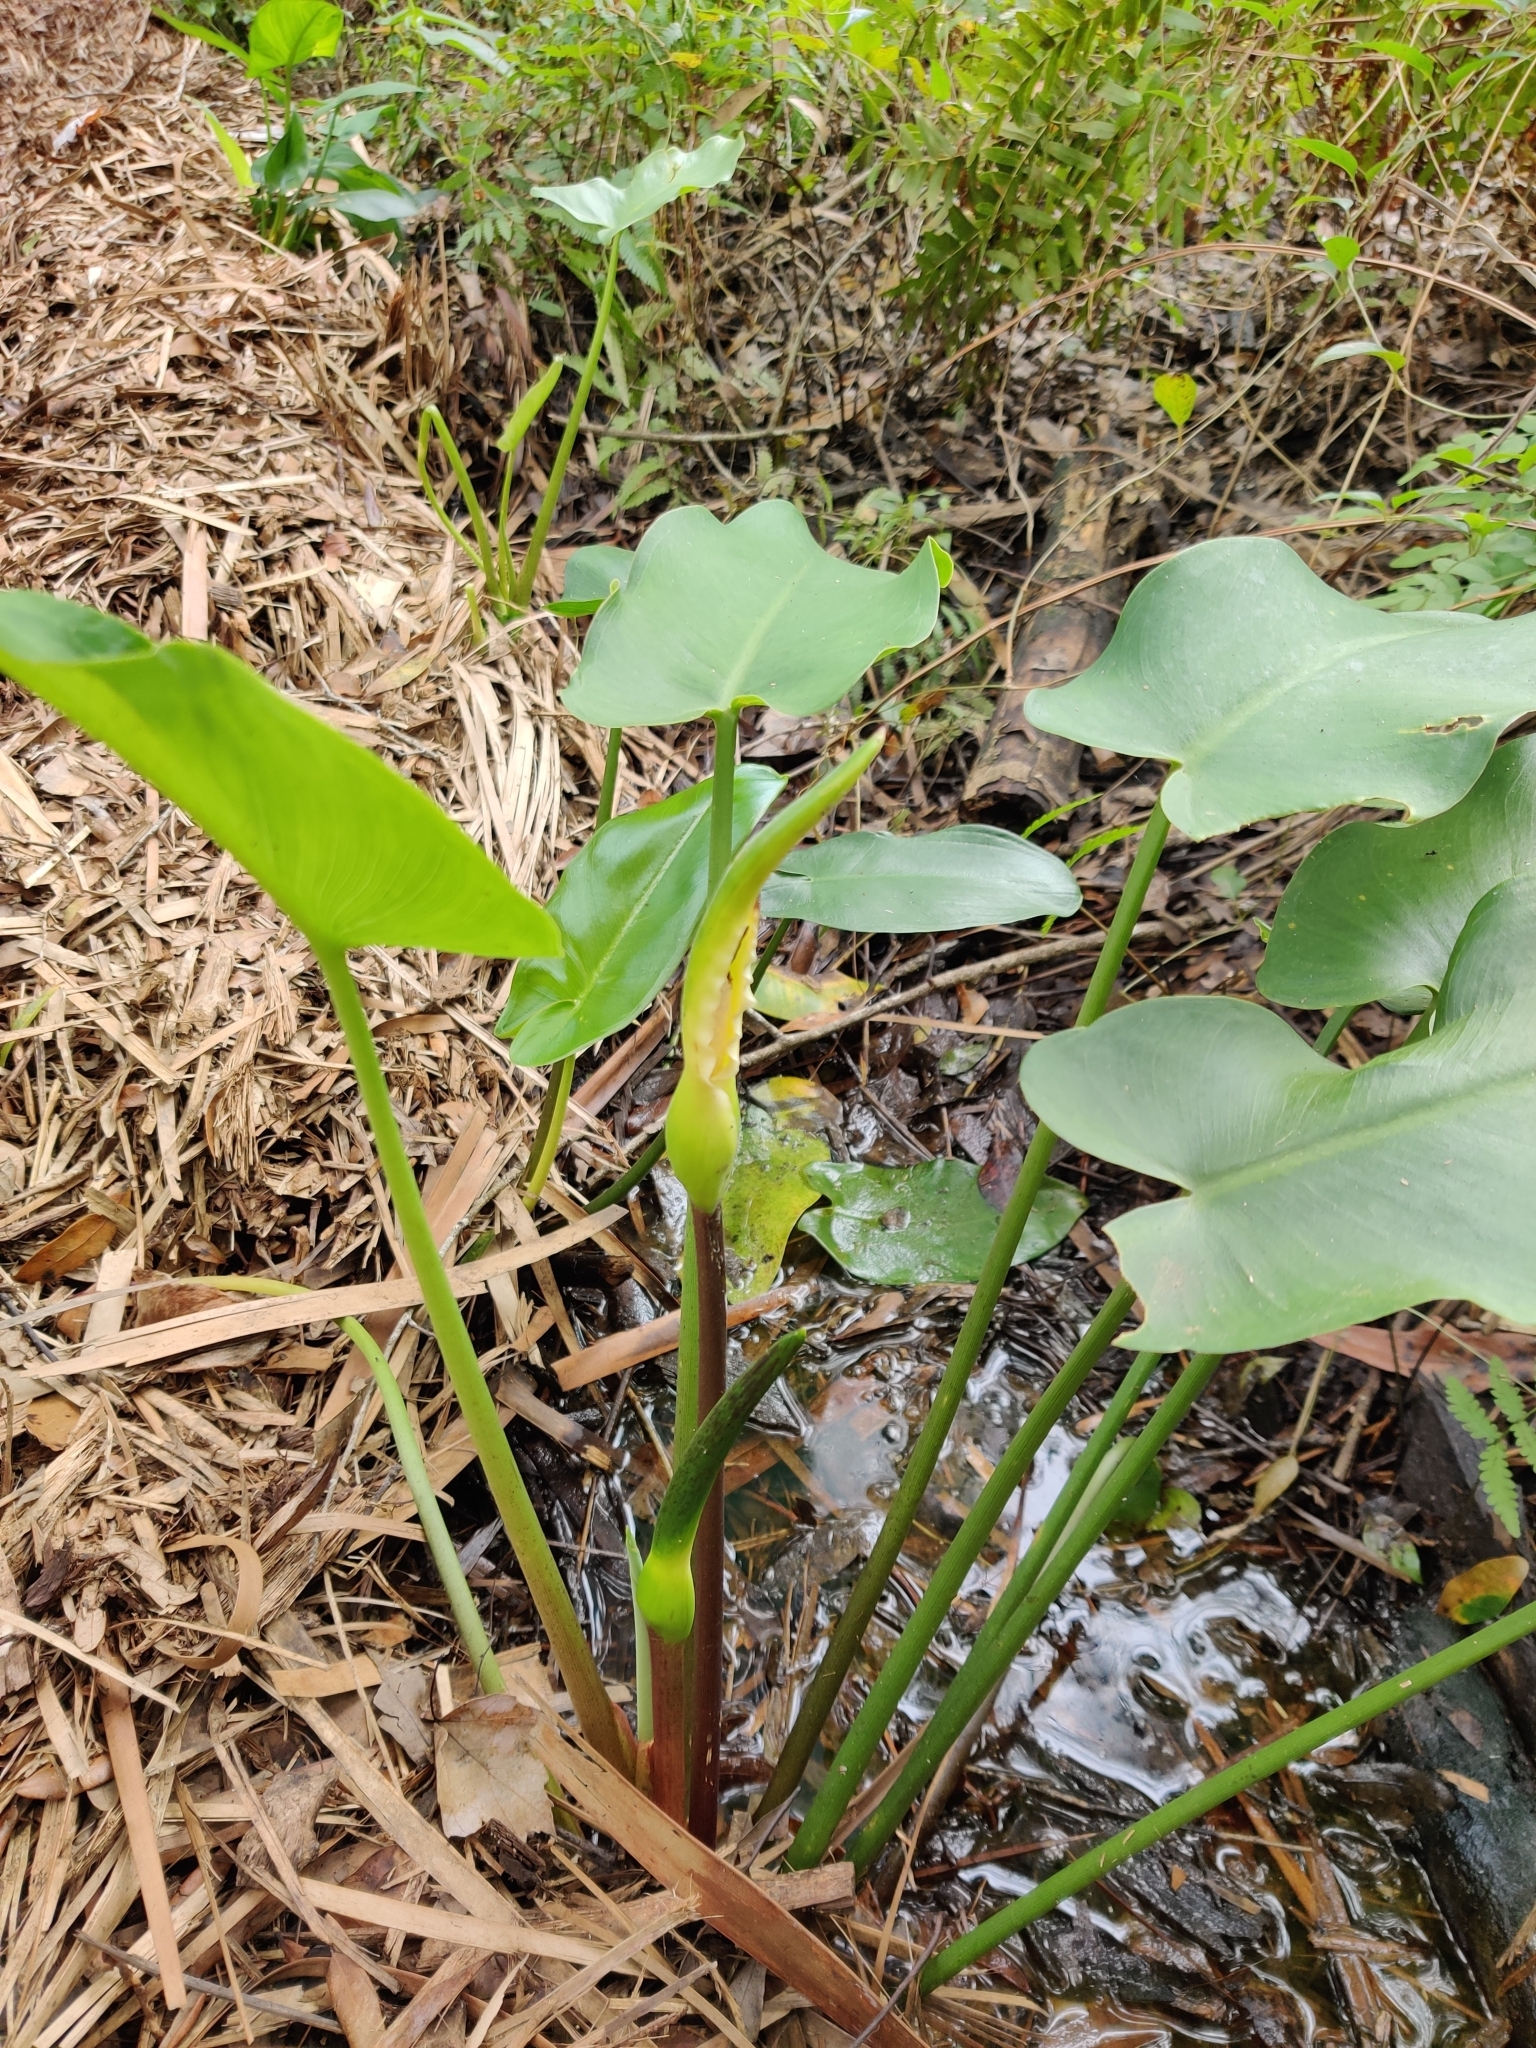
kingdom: Plantae
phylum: Tracheophyta
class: Liliopsida
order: Alismatales
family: Araceae
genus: Peltandra
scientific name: Peltandra virginica
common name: Arrow arum
